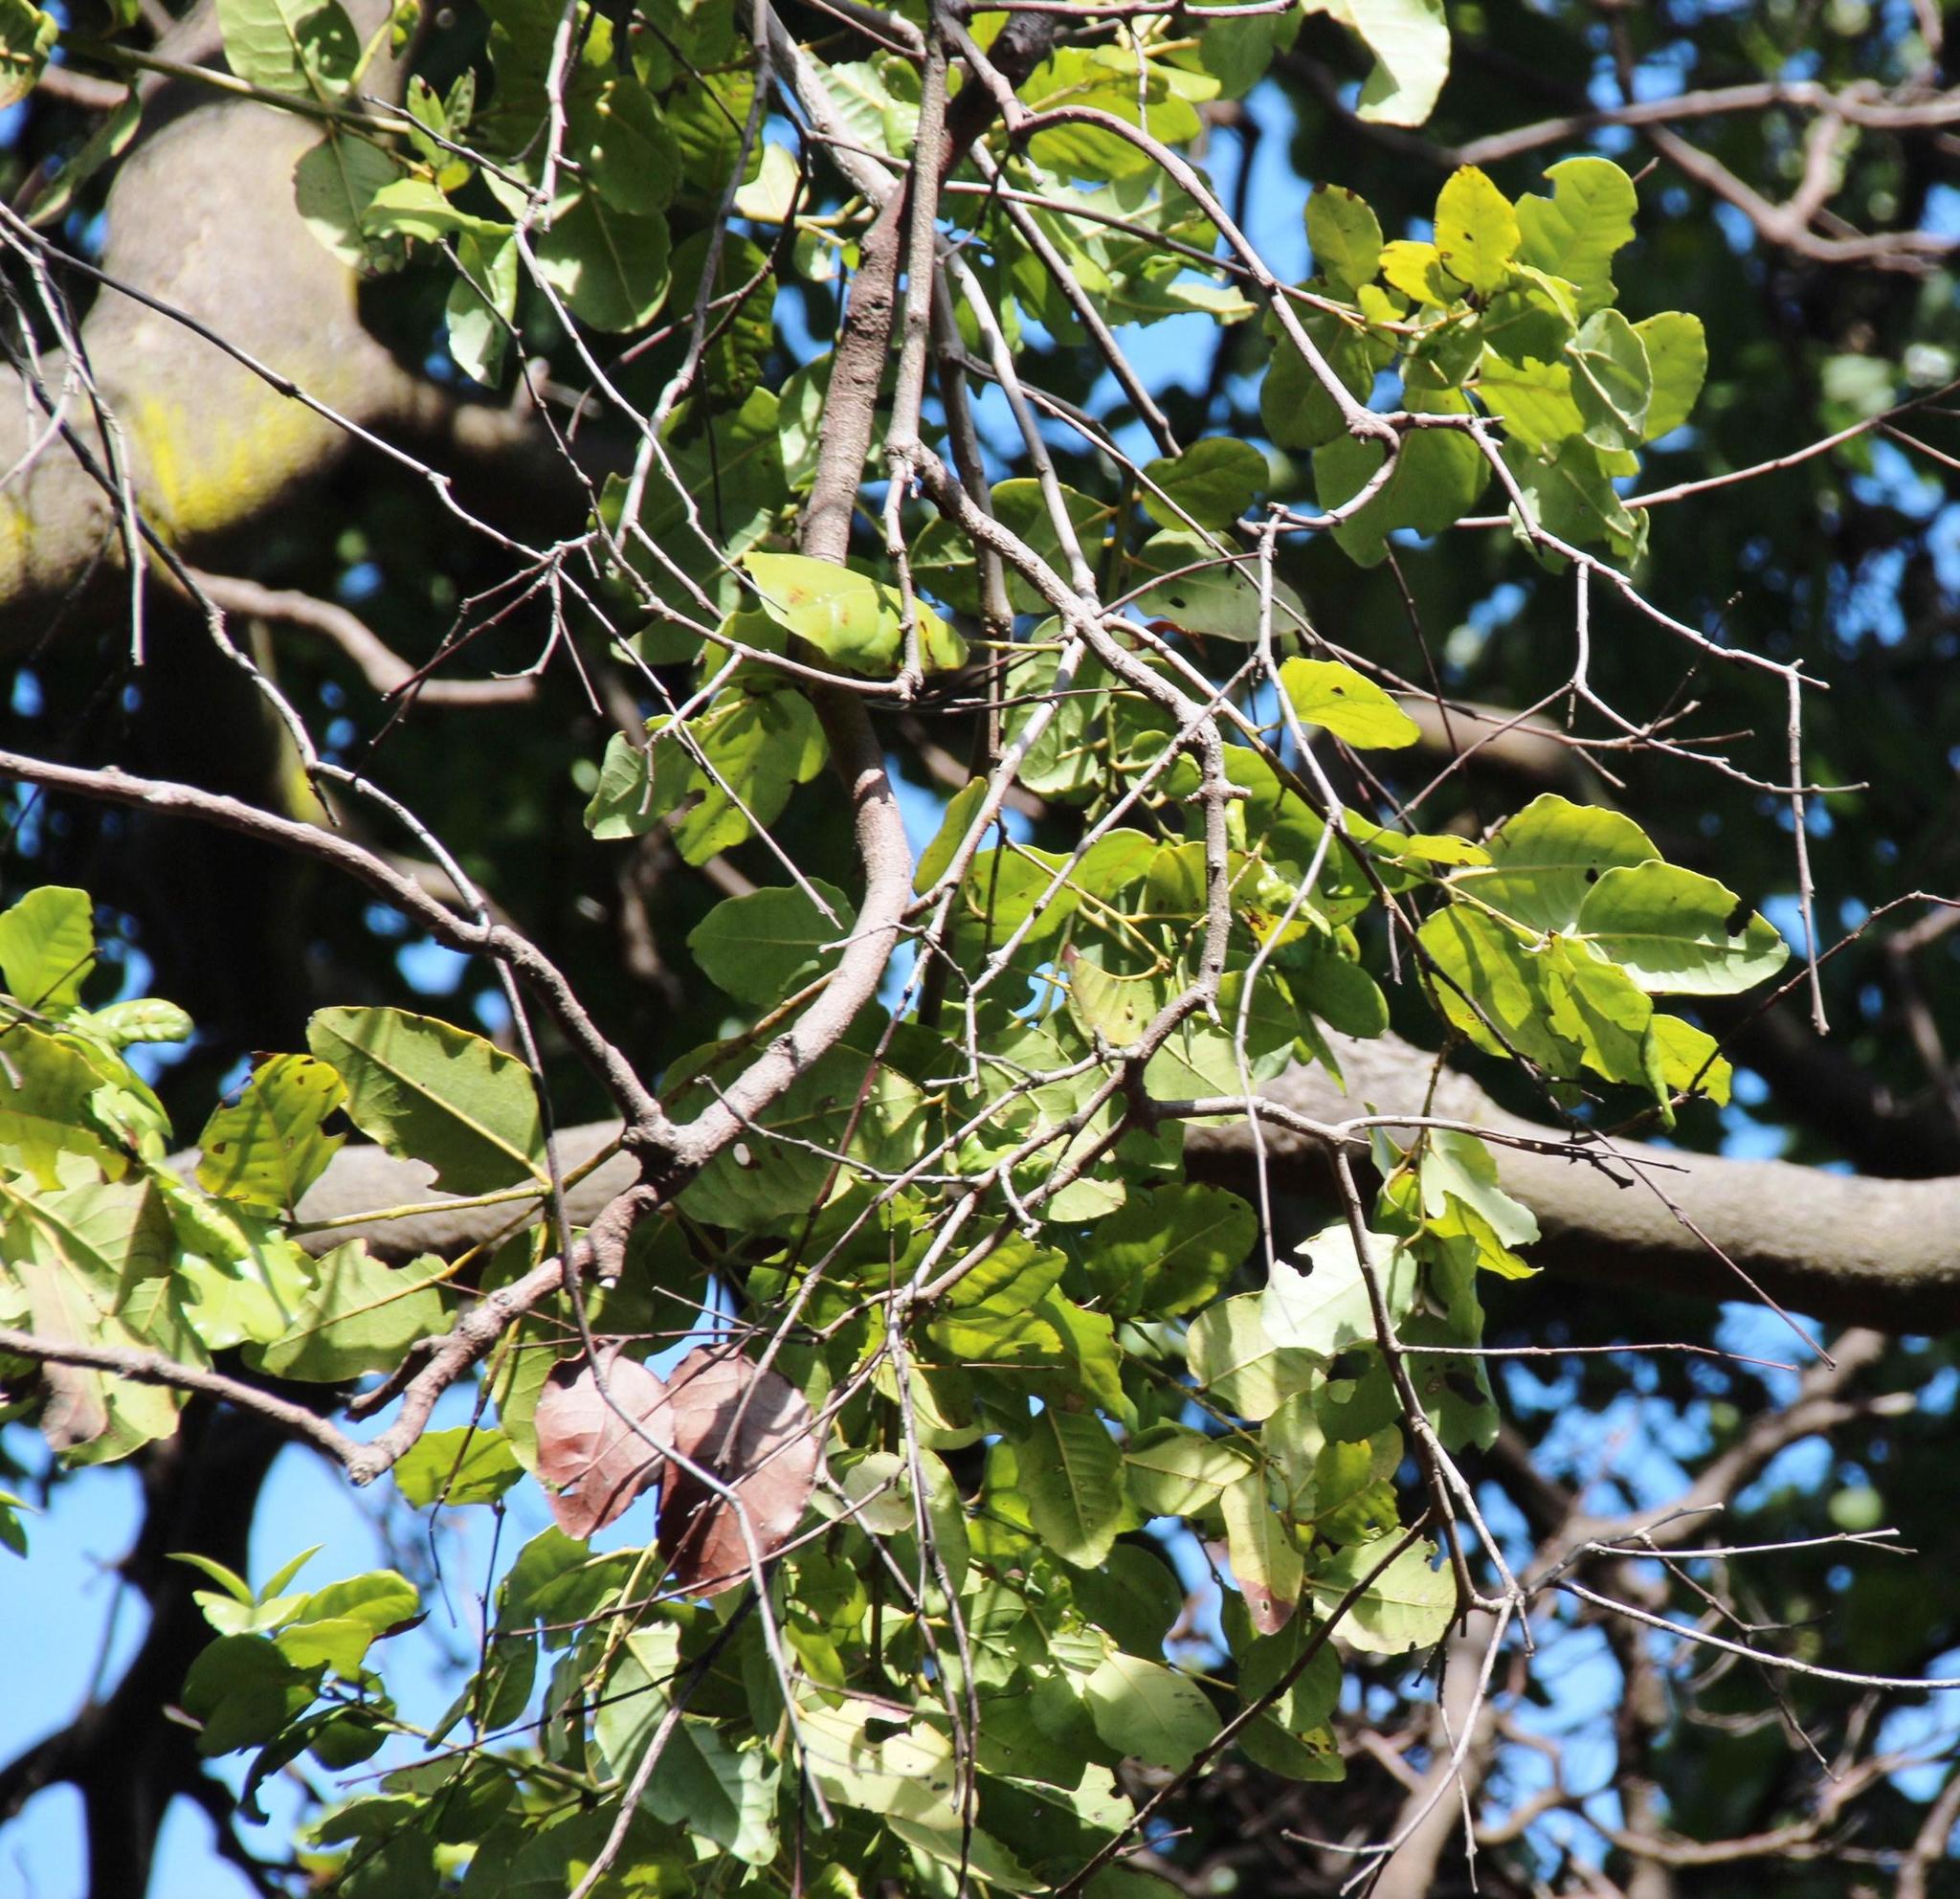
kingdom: Plantae
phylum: Tracheophyta
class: Magnoliopsida
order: Laurales
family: Lauraceae
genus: Cryptocarya
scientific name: Cryptocarya alba
